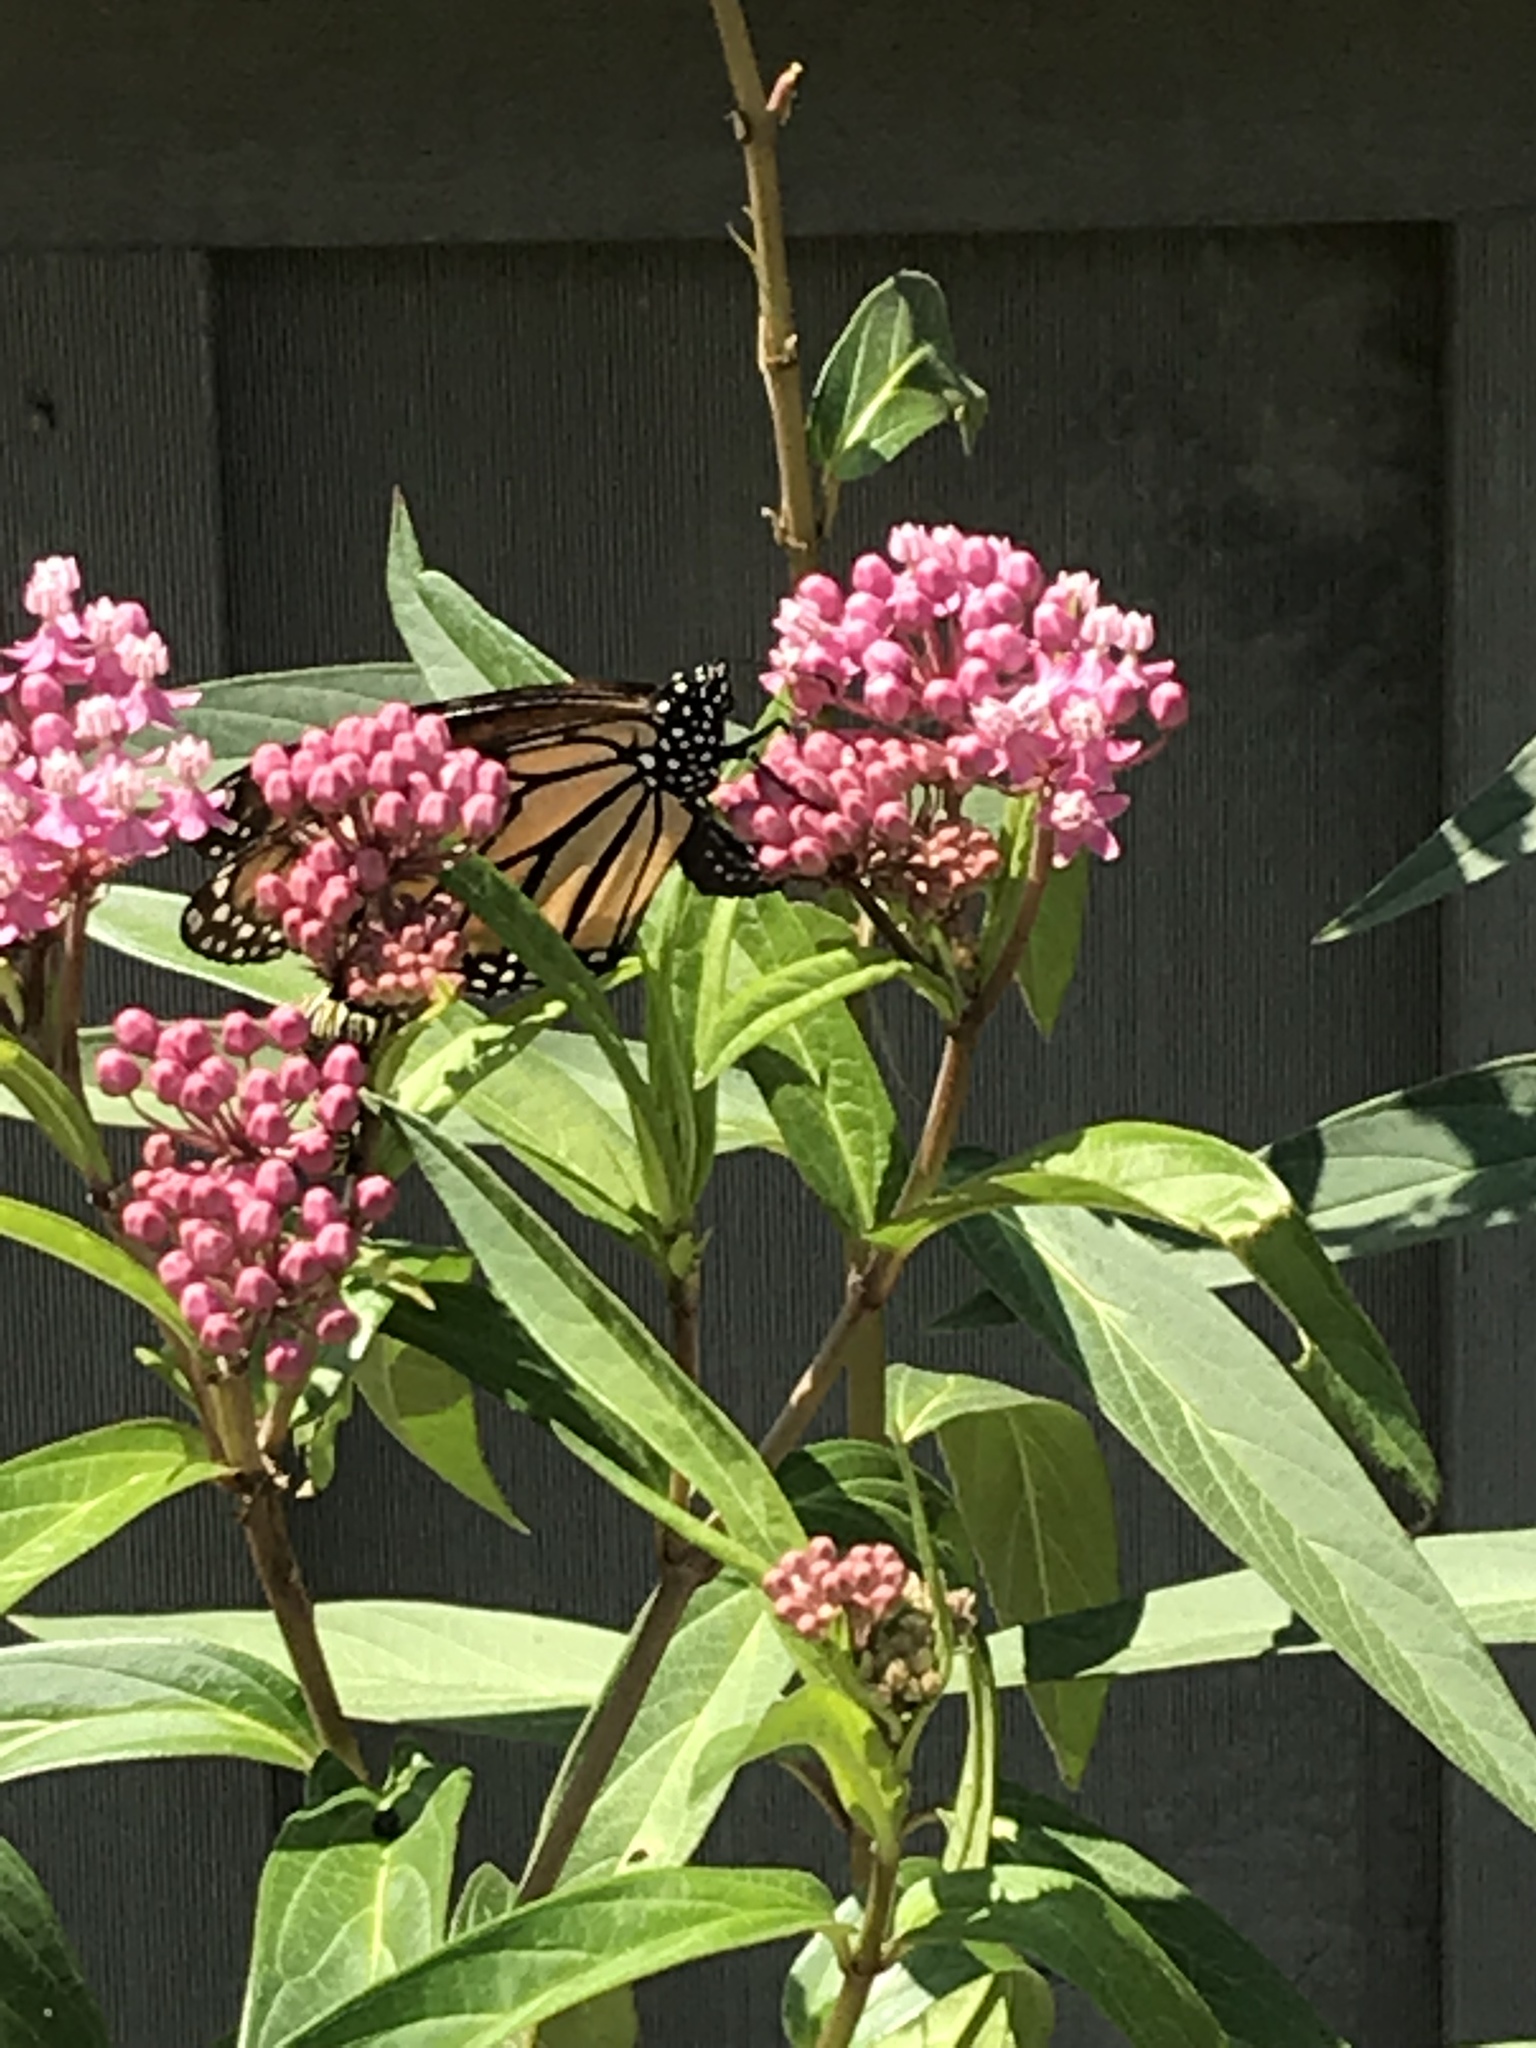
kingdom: Animalia
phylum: Arthropoda
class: Insecta
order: Lepidoptera
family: Nymphalidae
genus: Danaus
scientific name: Danaus plexippus
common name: Monarch
